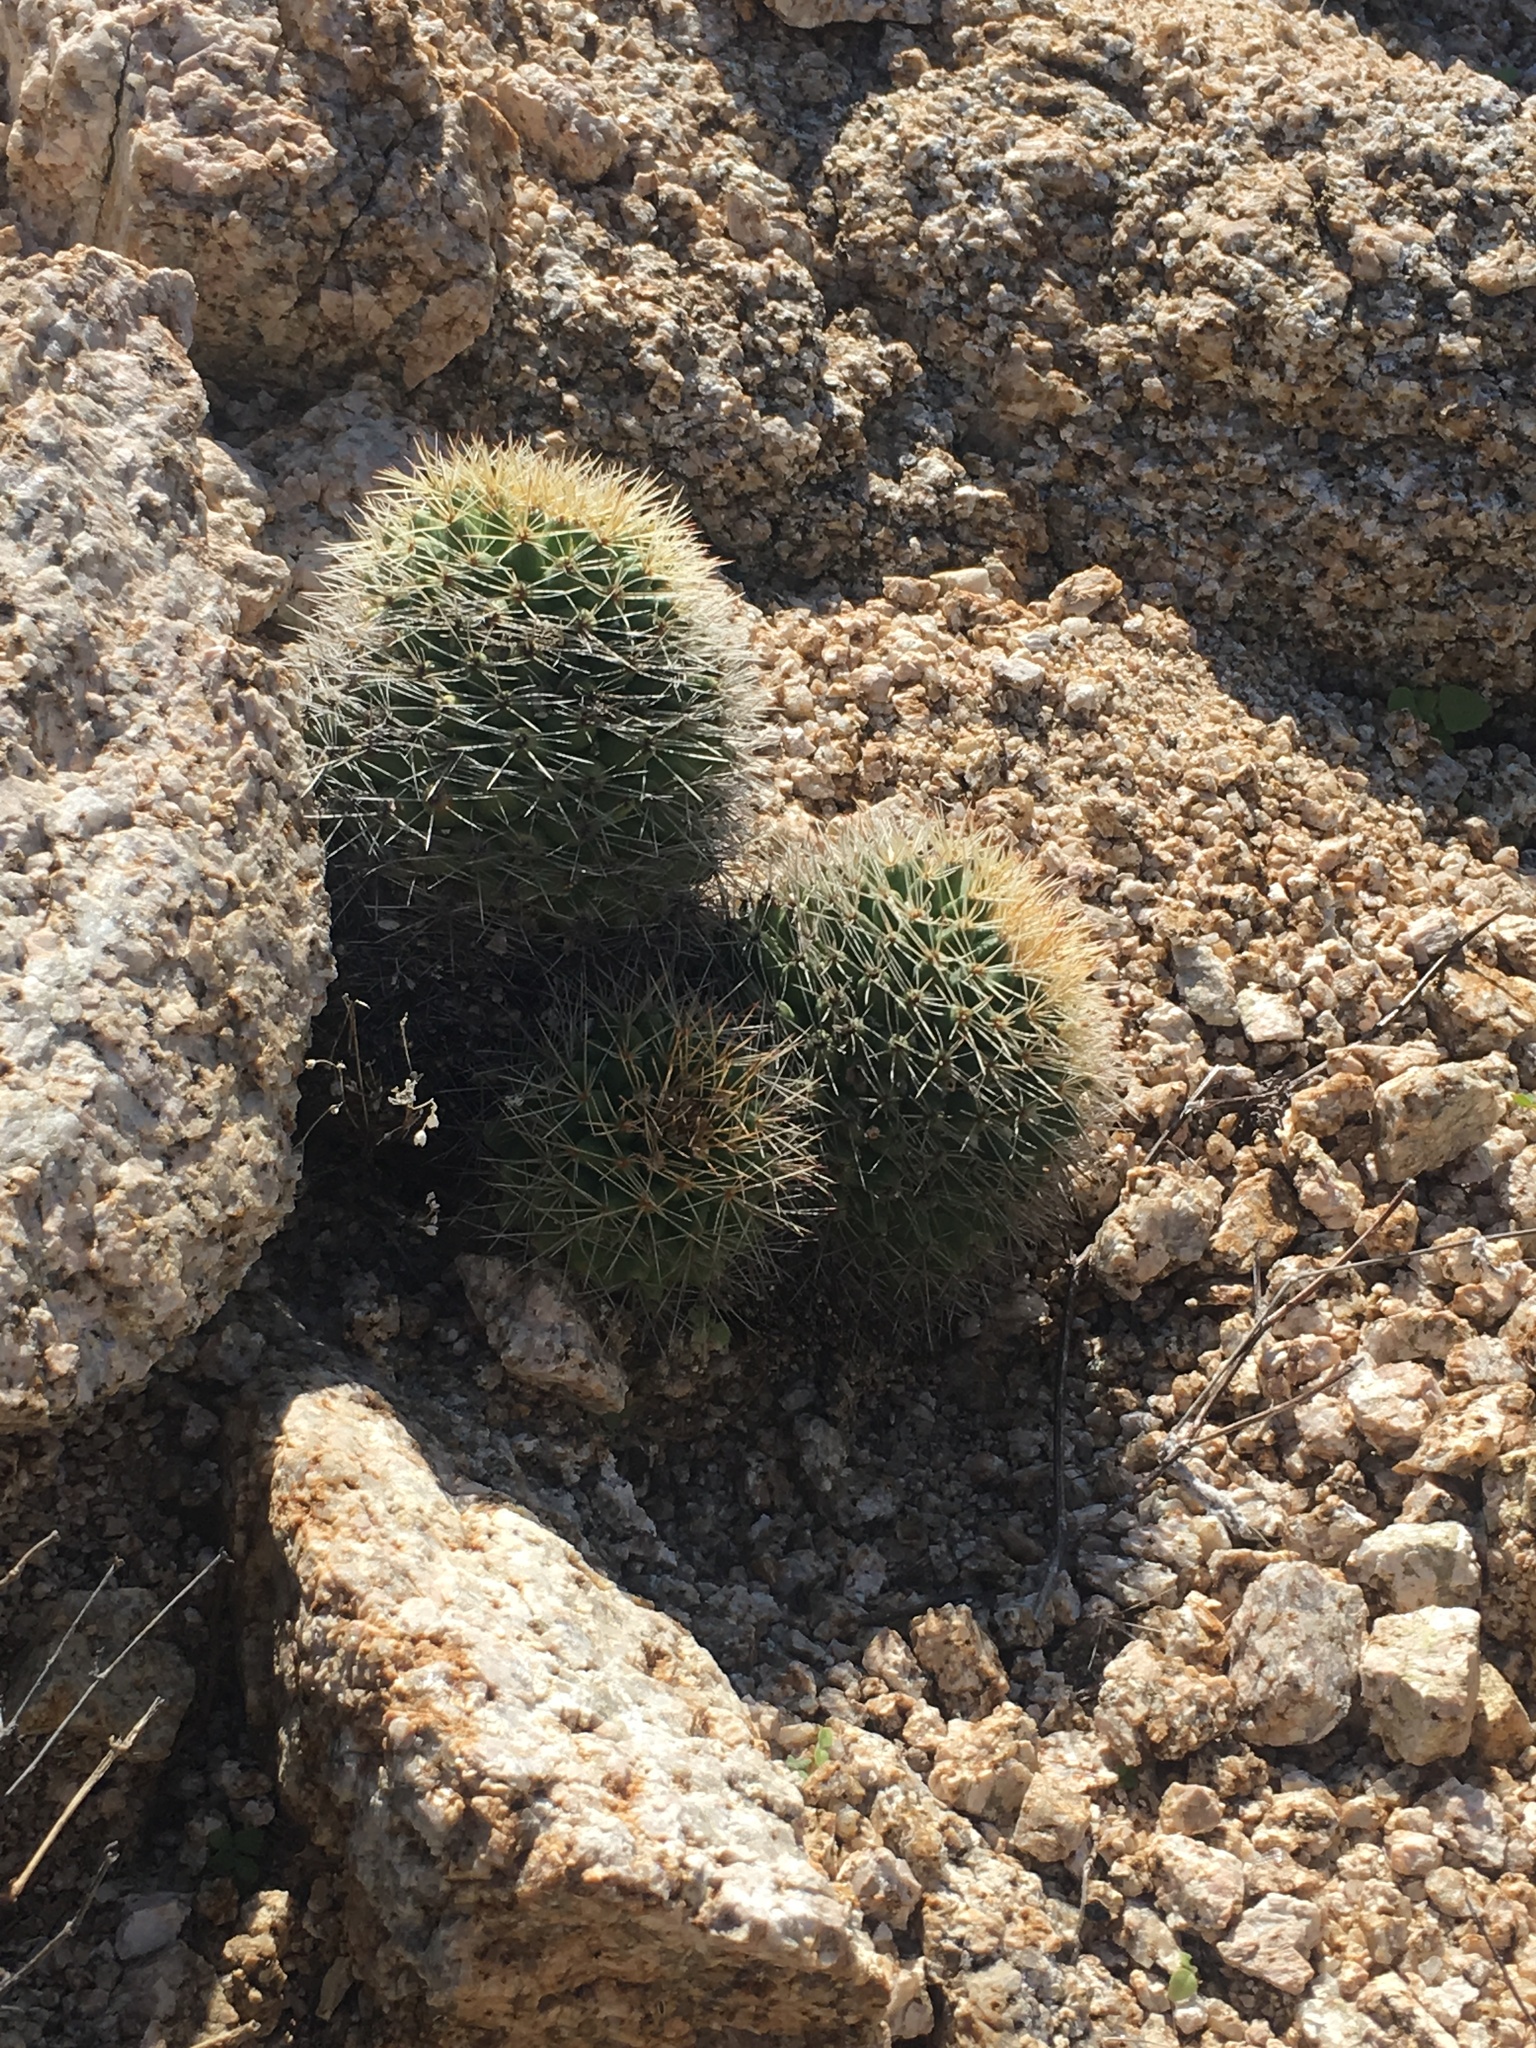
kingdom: Plantae
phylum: Tracheophyta
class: Magnoliopsida
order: Caryophyllales
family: Cactaceae
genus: Mammillaria
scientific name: Mammillaria petrophila
